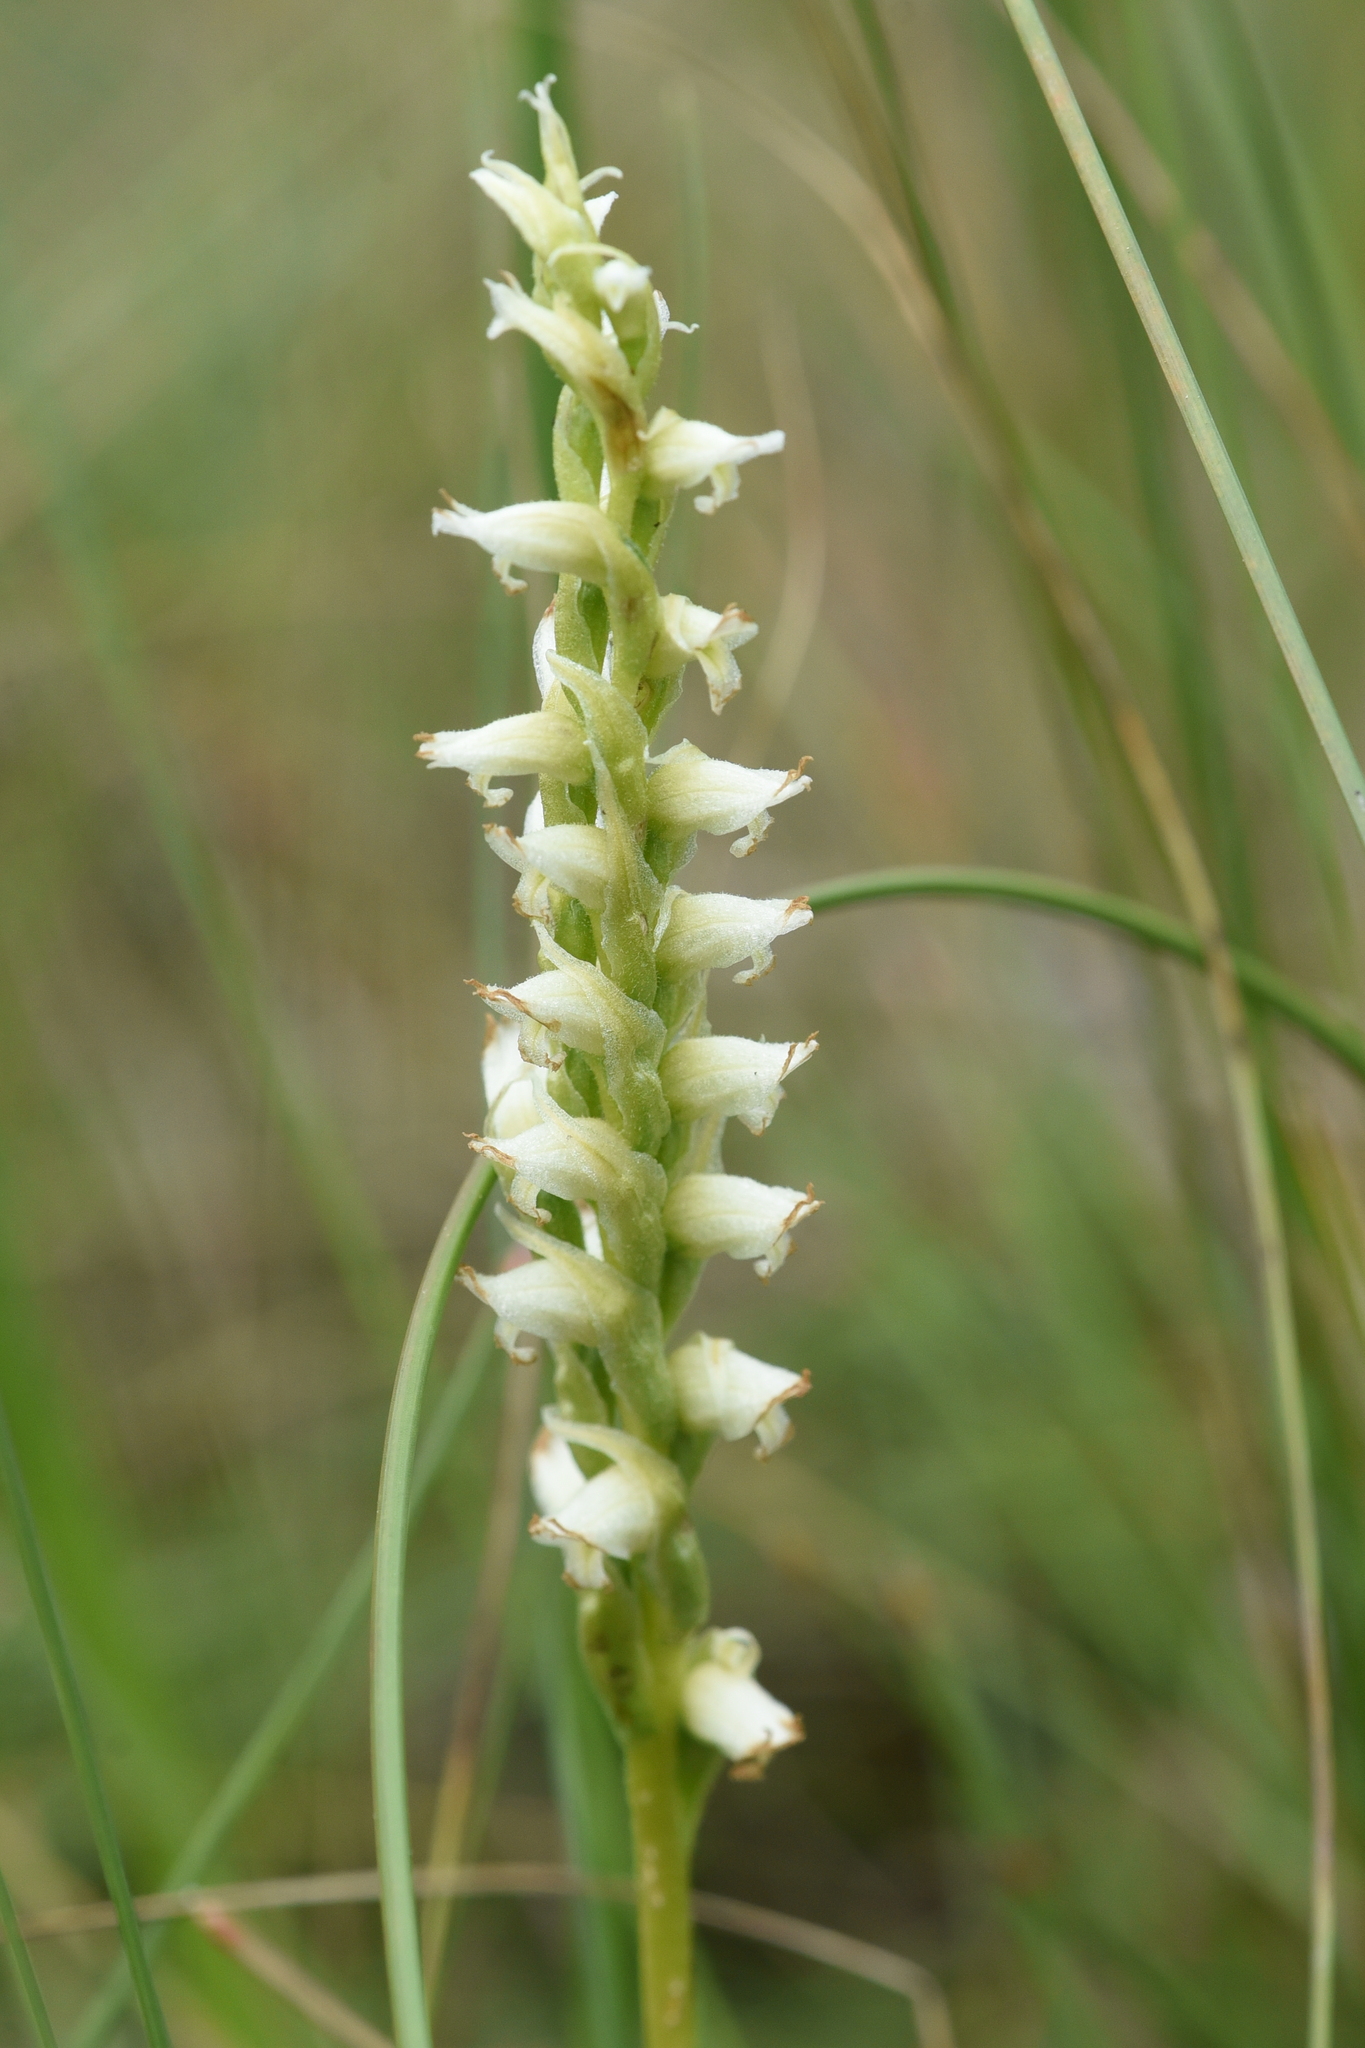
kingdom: Plantae
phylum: Tracheophyta
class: Liliopsida
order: Asparagales
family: Orchidaceae
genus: Spiranthes
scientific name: Spiranthes romanzoffiana
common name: Irish lady's-tresses
